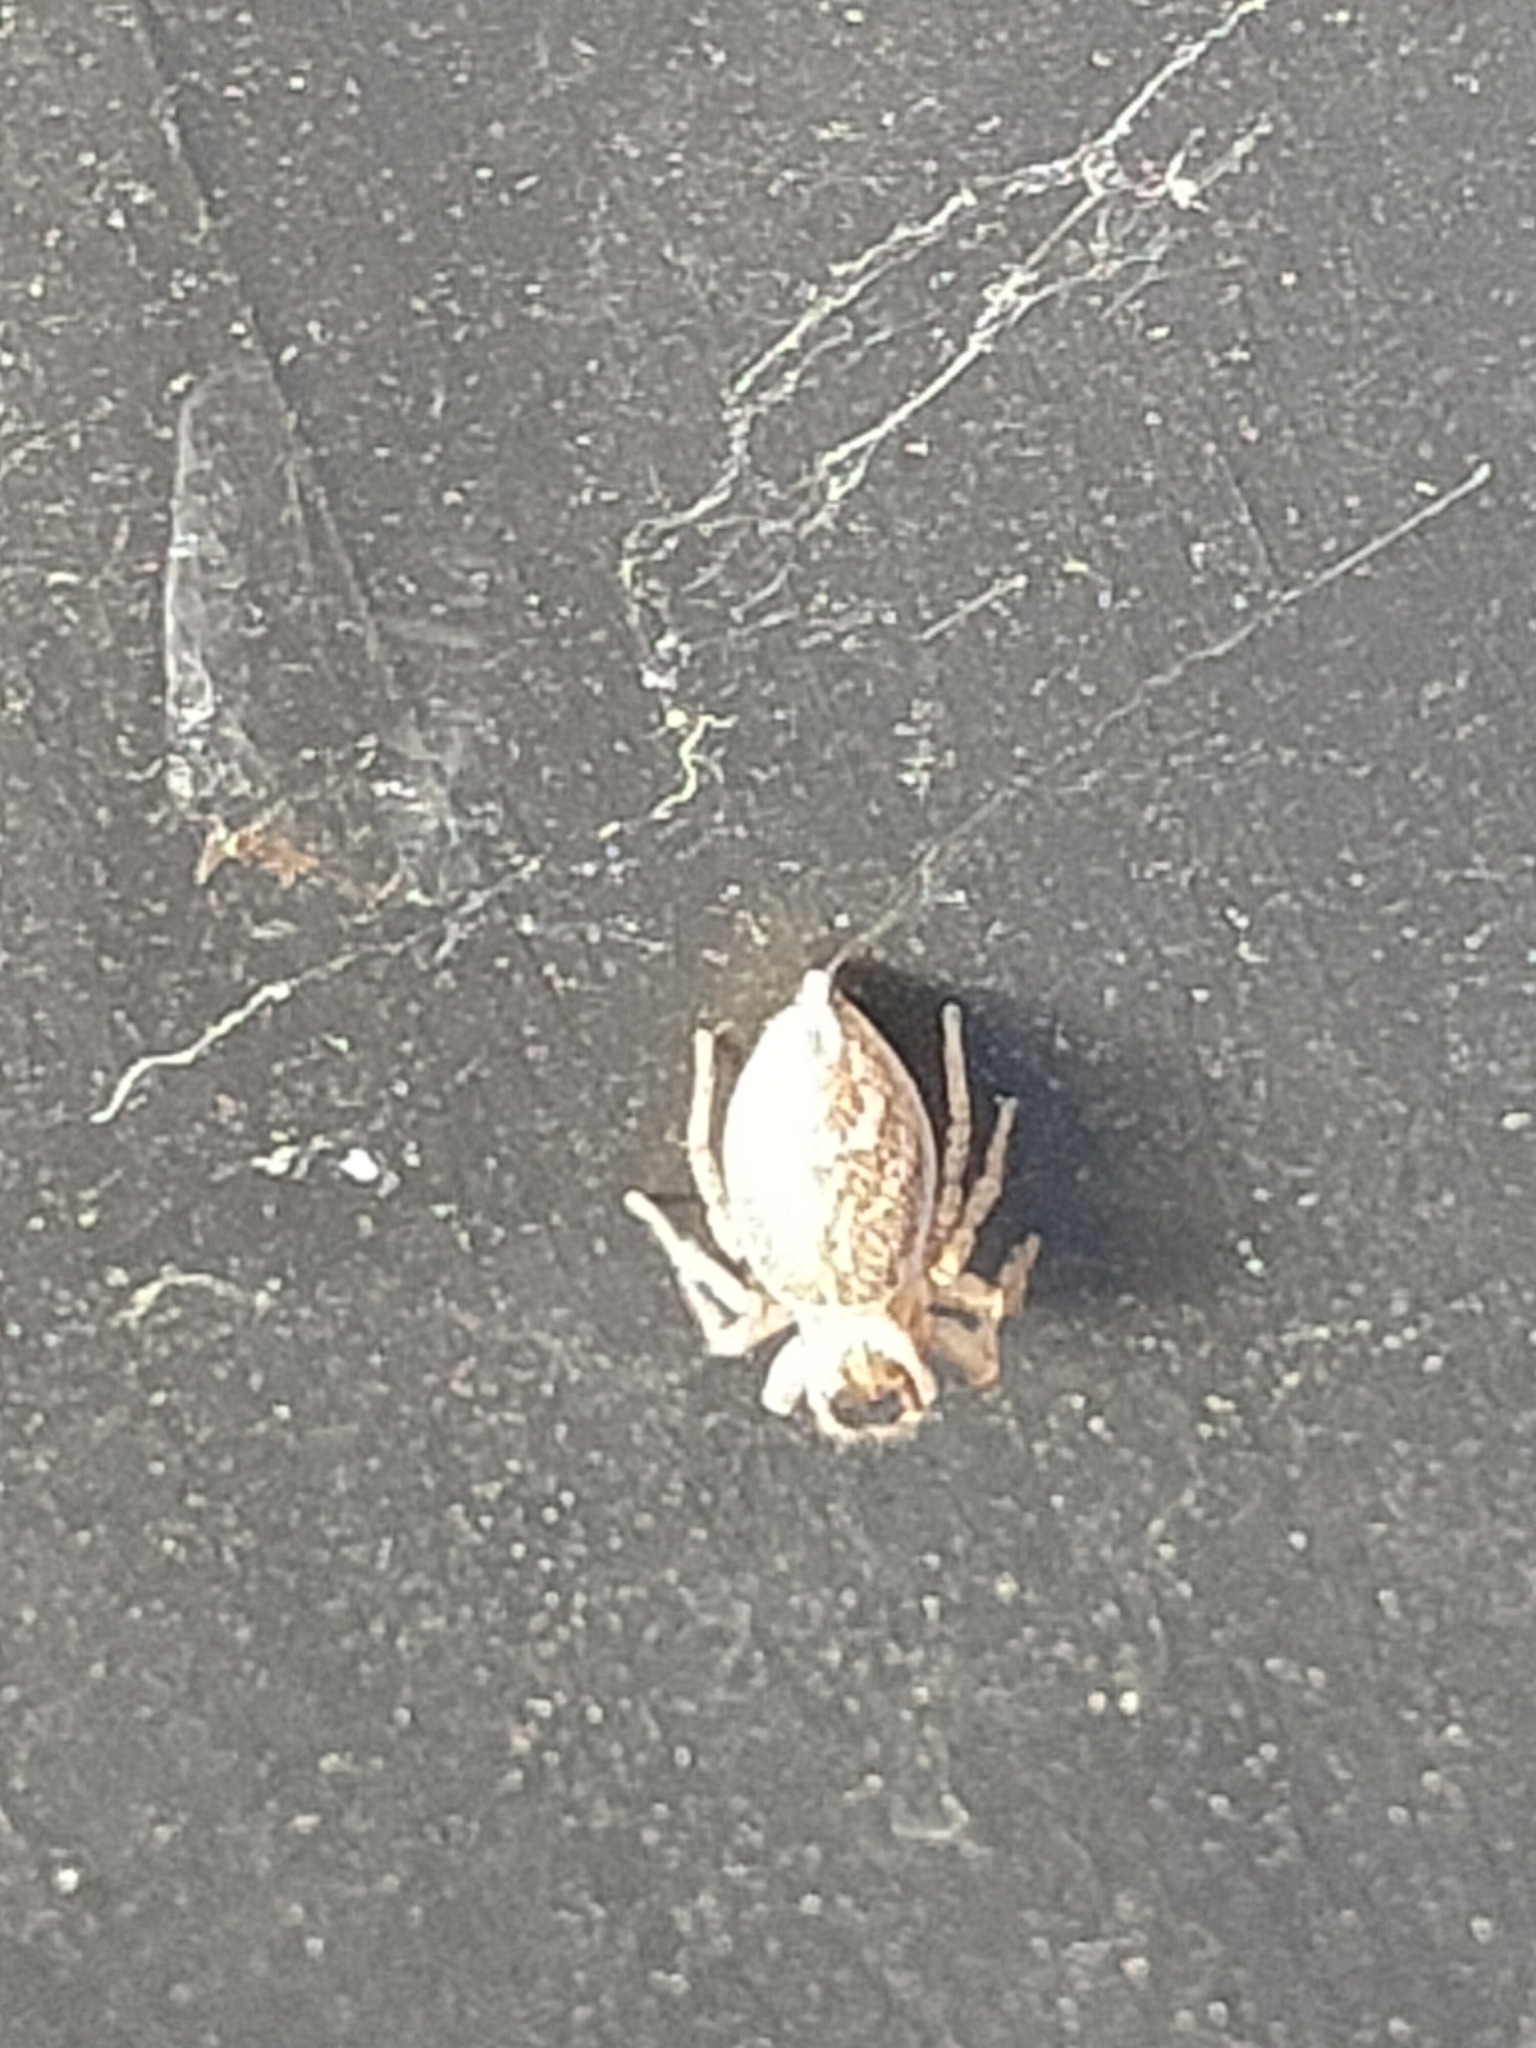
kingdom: Animalia
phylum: Arthropoda
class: Arachnida
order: Araneae
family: Salticidae
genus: Maratus
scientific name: Maratus griseus
